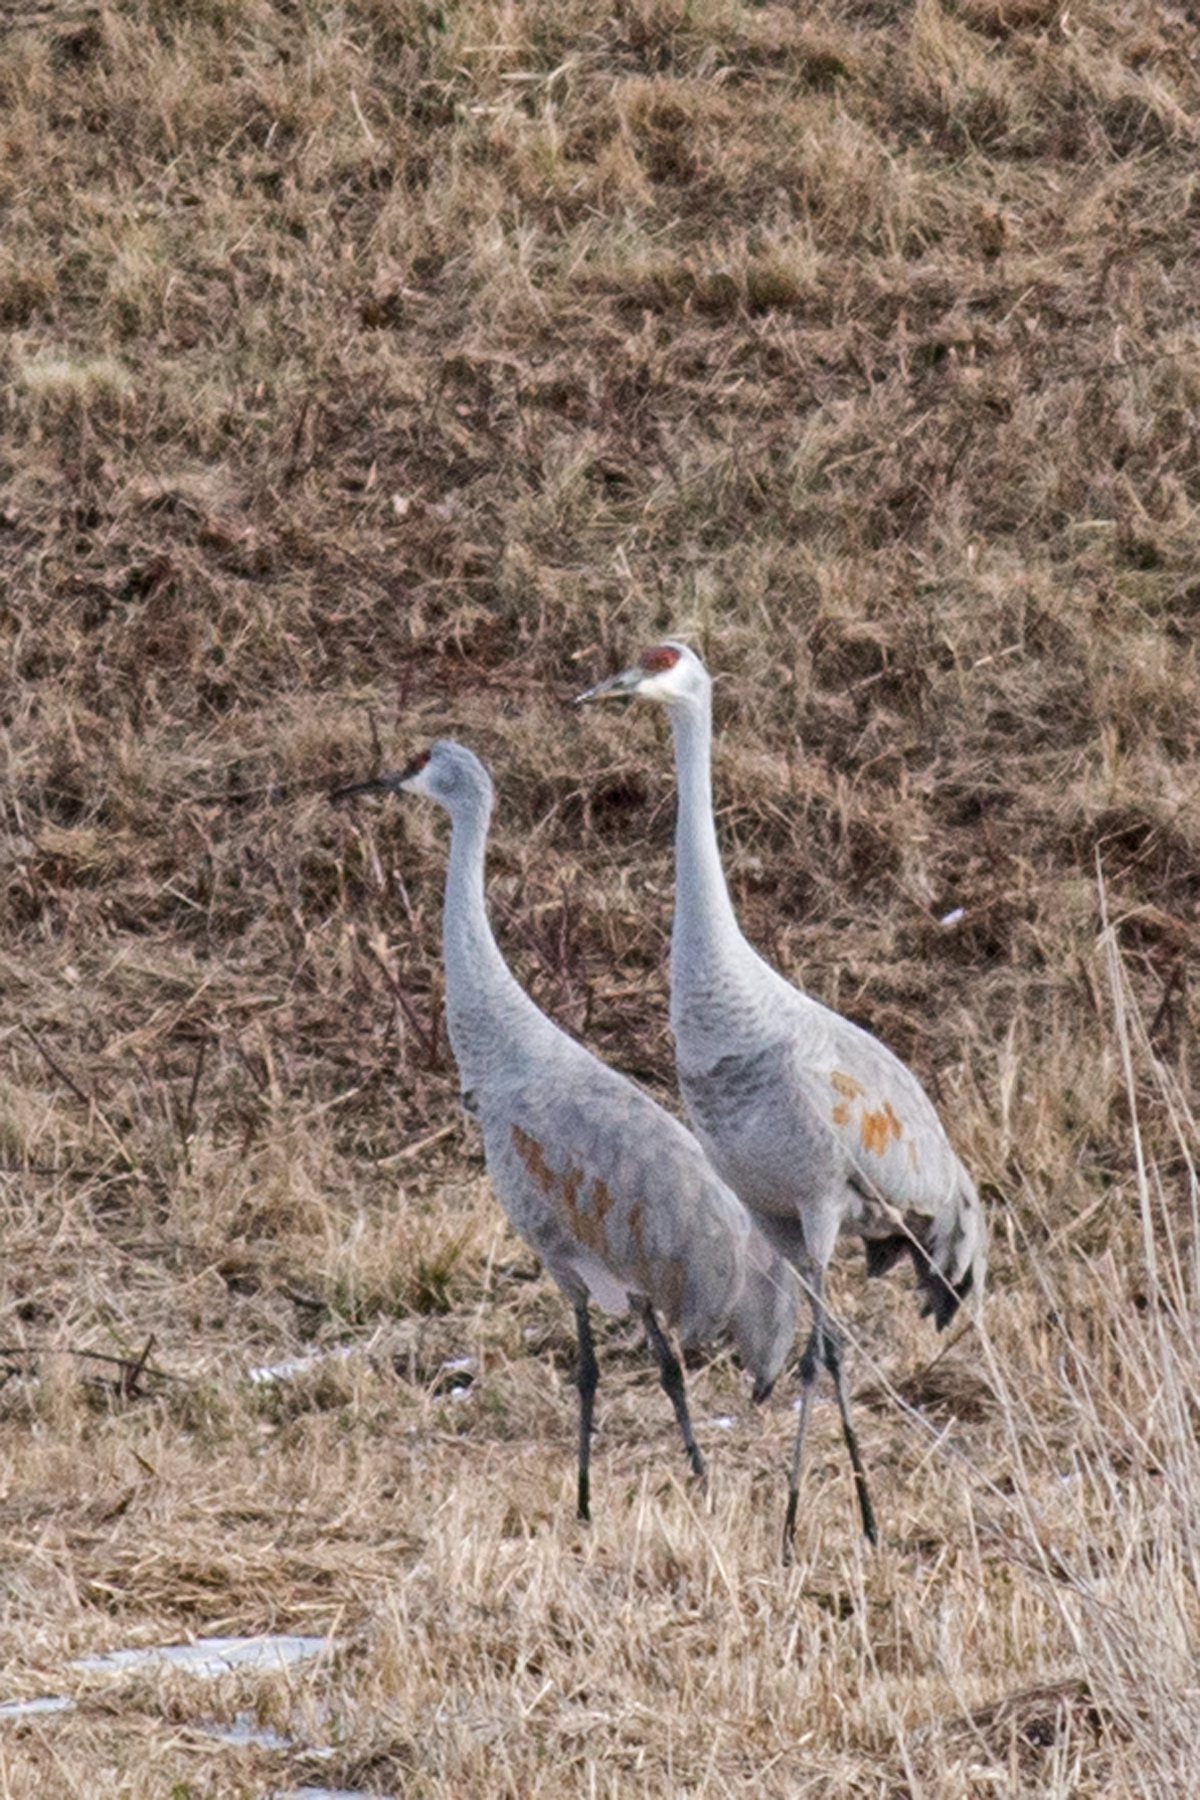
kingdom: Animalia
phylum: Chordata
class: Aves
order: Gruiformes
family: Gruidae
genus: Grus
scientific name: Grus canadensis
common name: Sandhill crane
